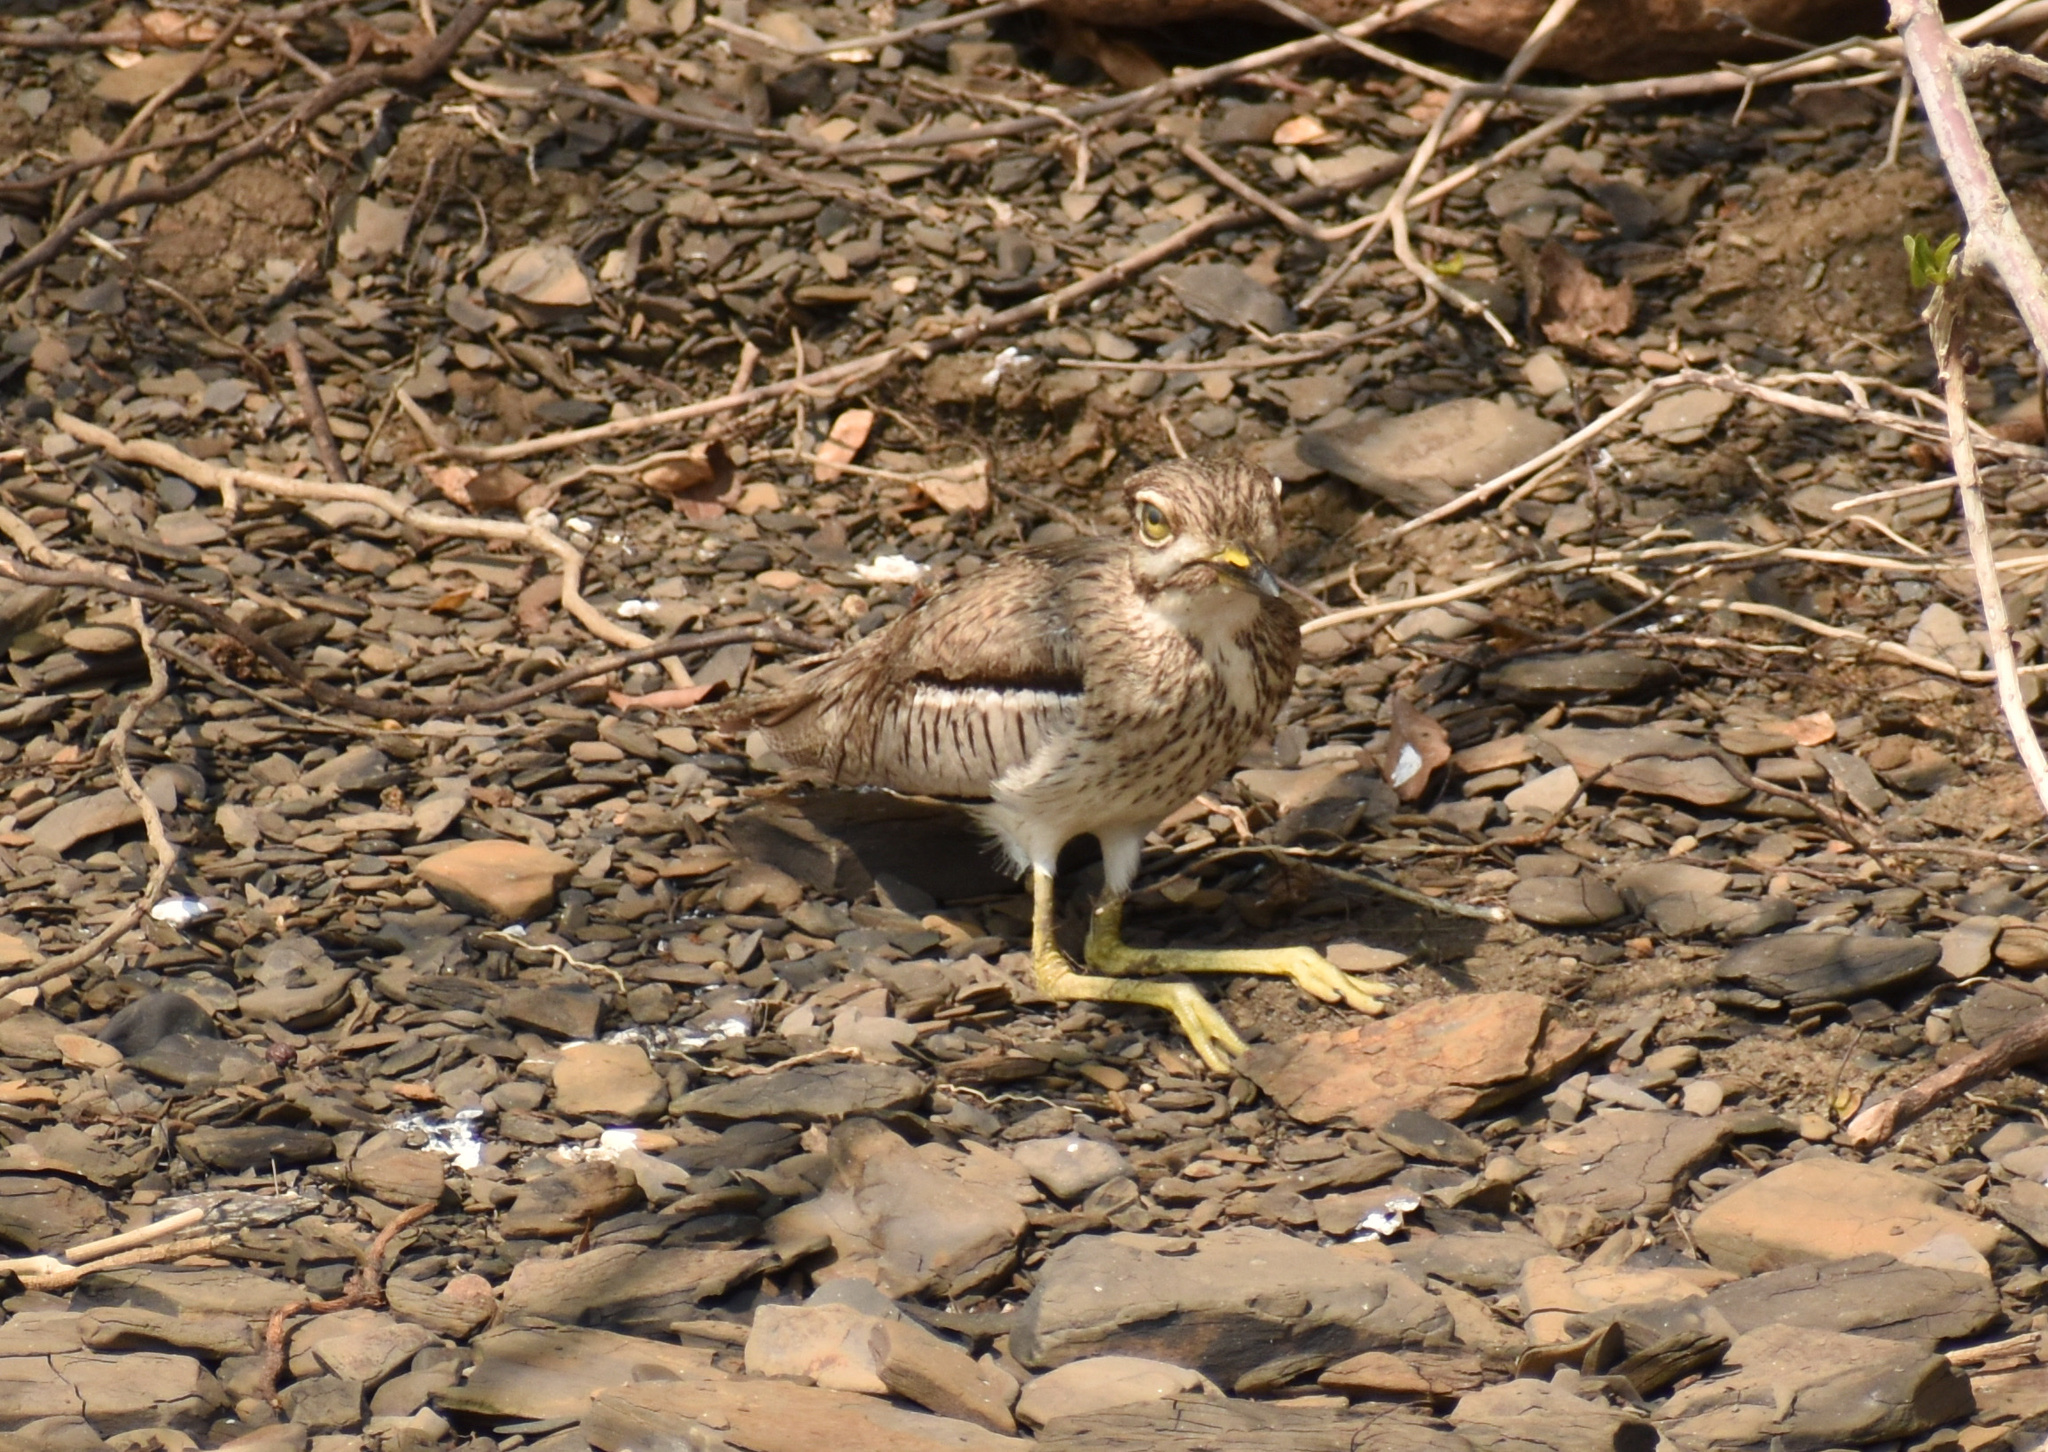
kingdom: Animalia
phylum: Chordata
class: Aves
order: Charadriiformes
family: Burhinidae
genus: Burhinus
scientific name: Burhinus vermiculatus
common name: Water thick-knee
